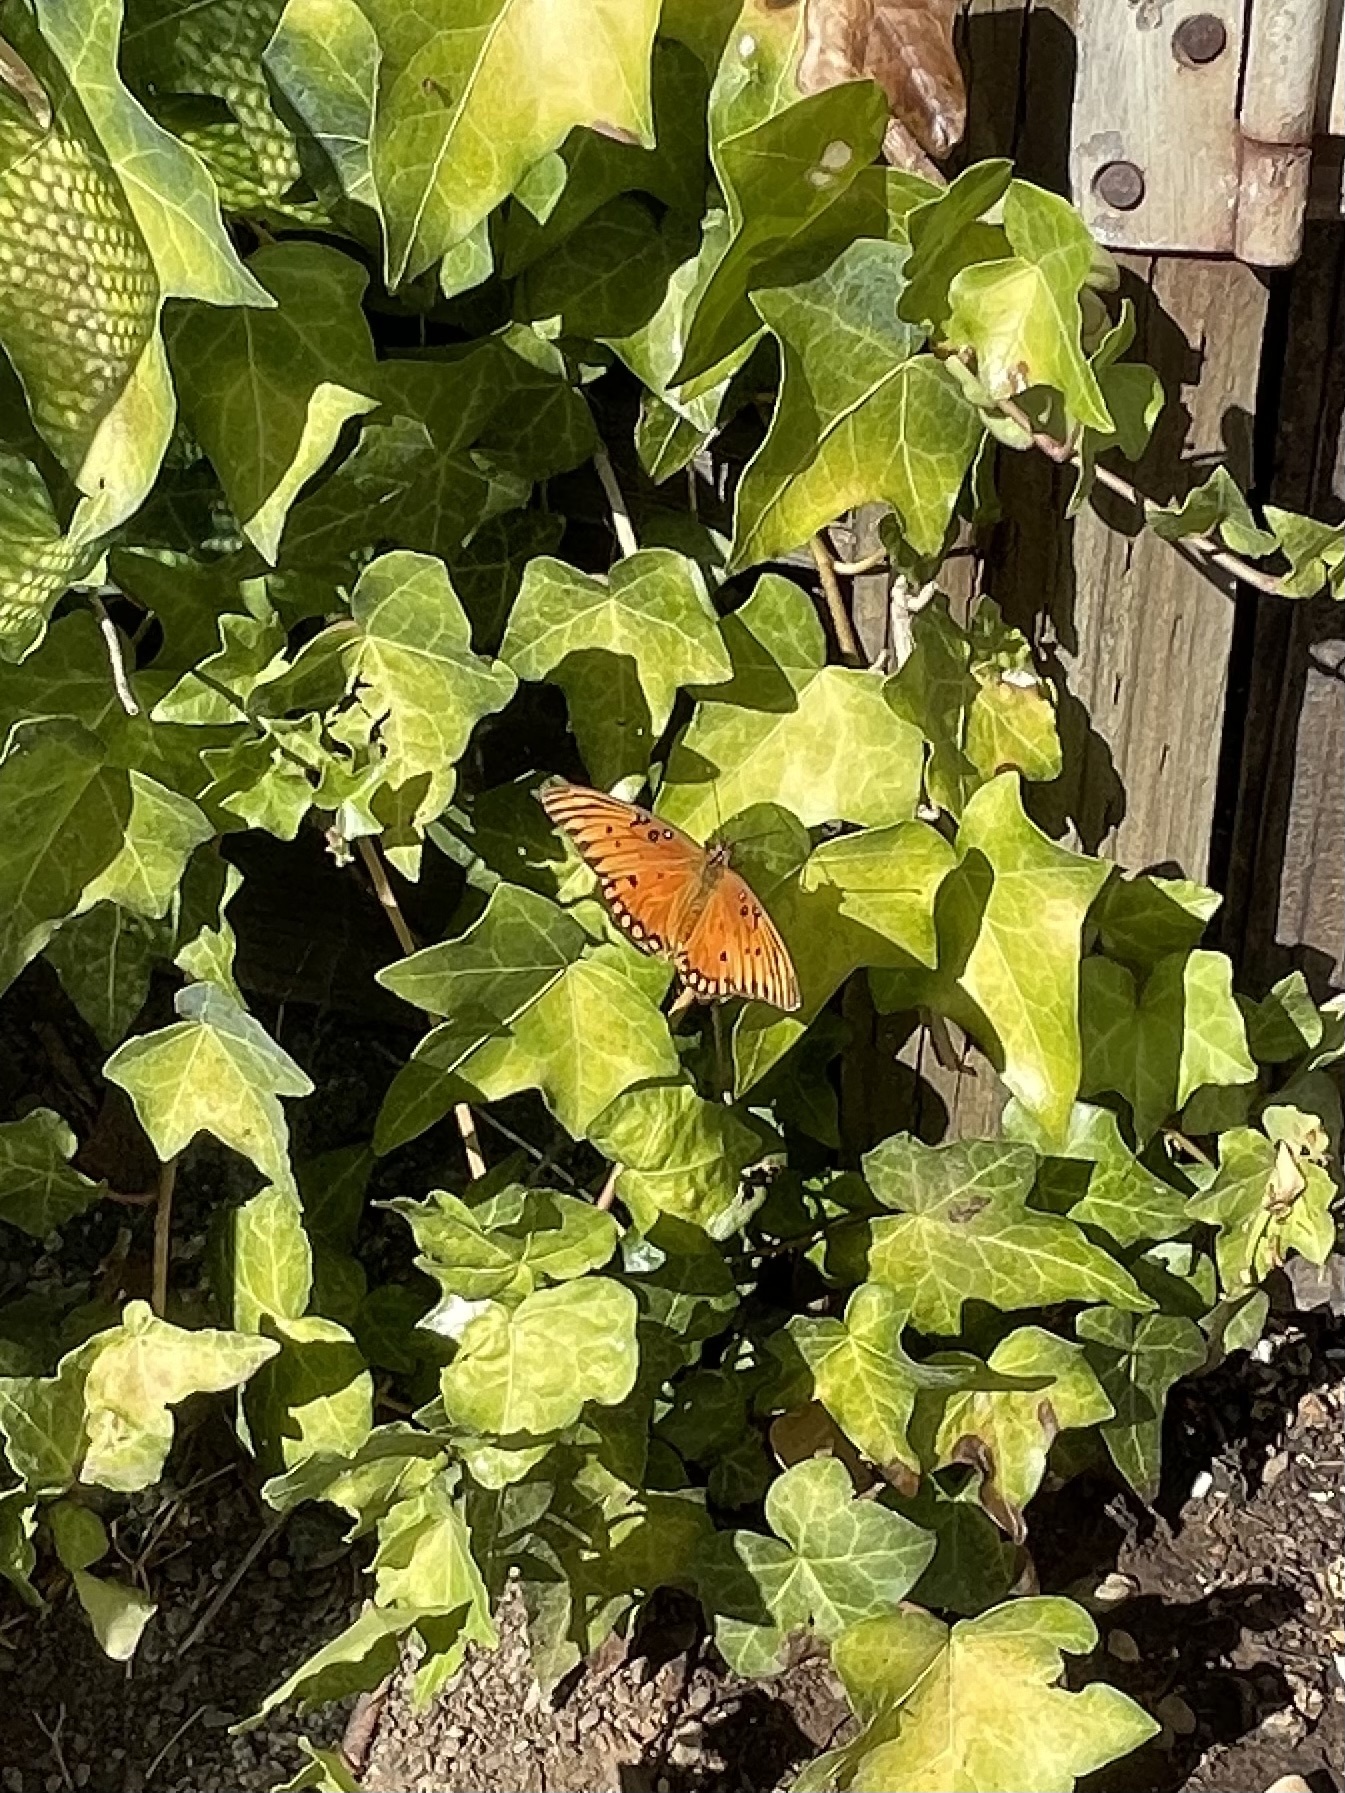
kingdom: Animalia
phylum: Arthropoda
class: Insecta
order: Lepidoptera
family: Nymphalidae
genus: Dione
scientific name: Dione vanillae
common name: Gulf fritillary
